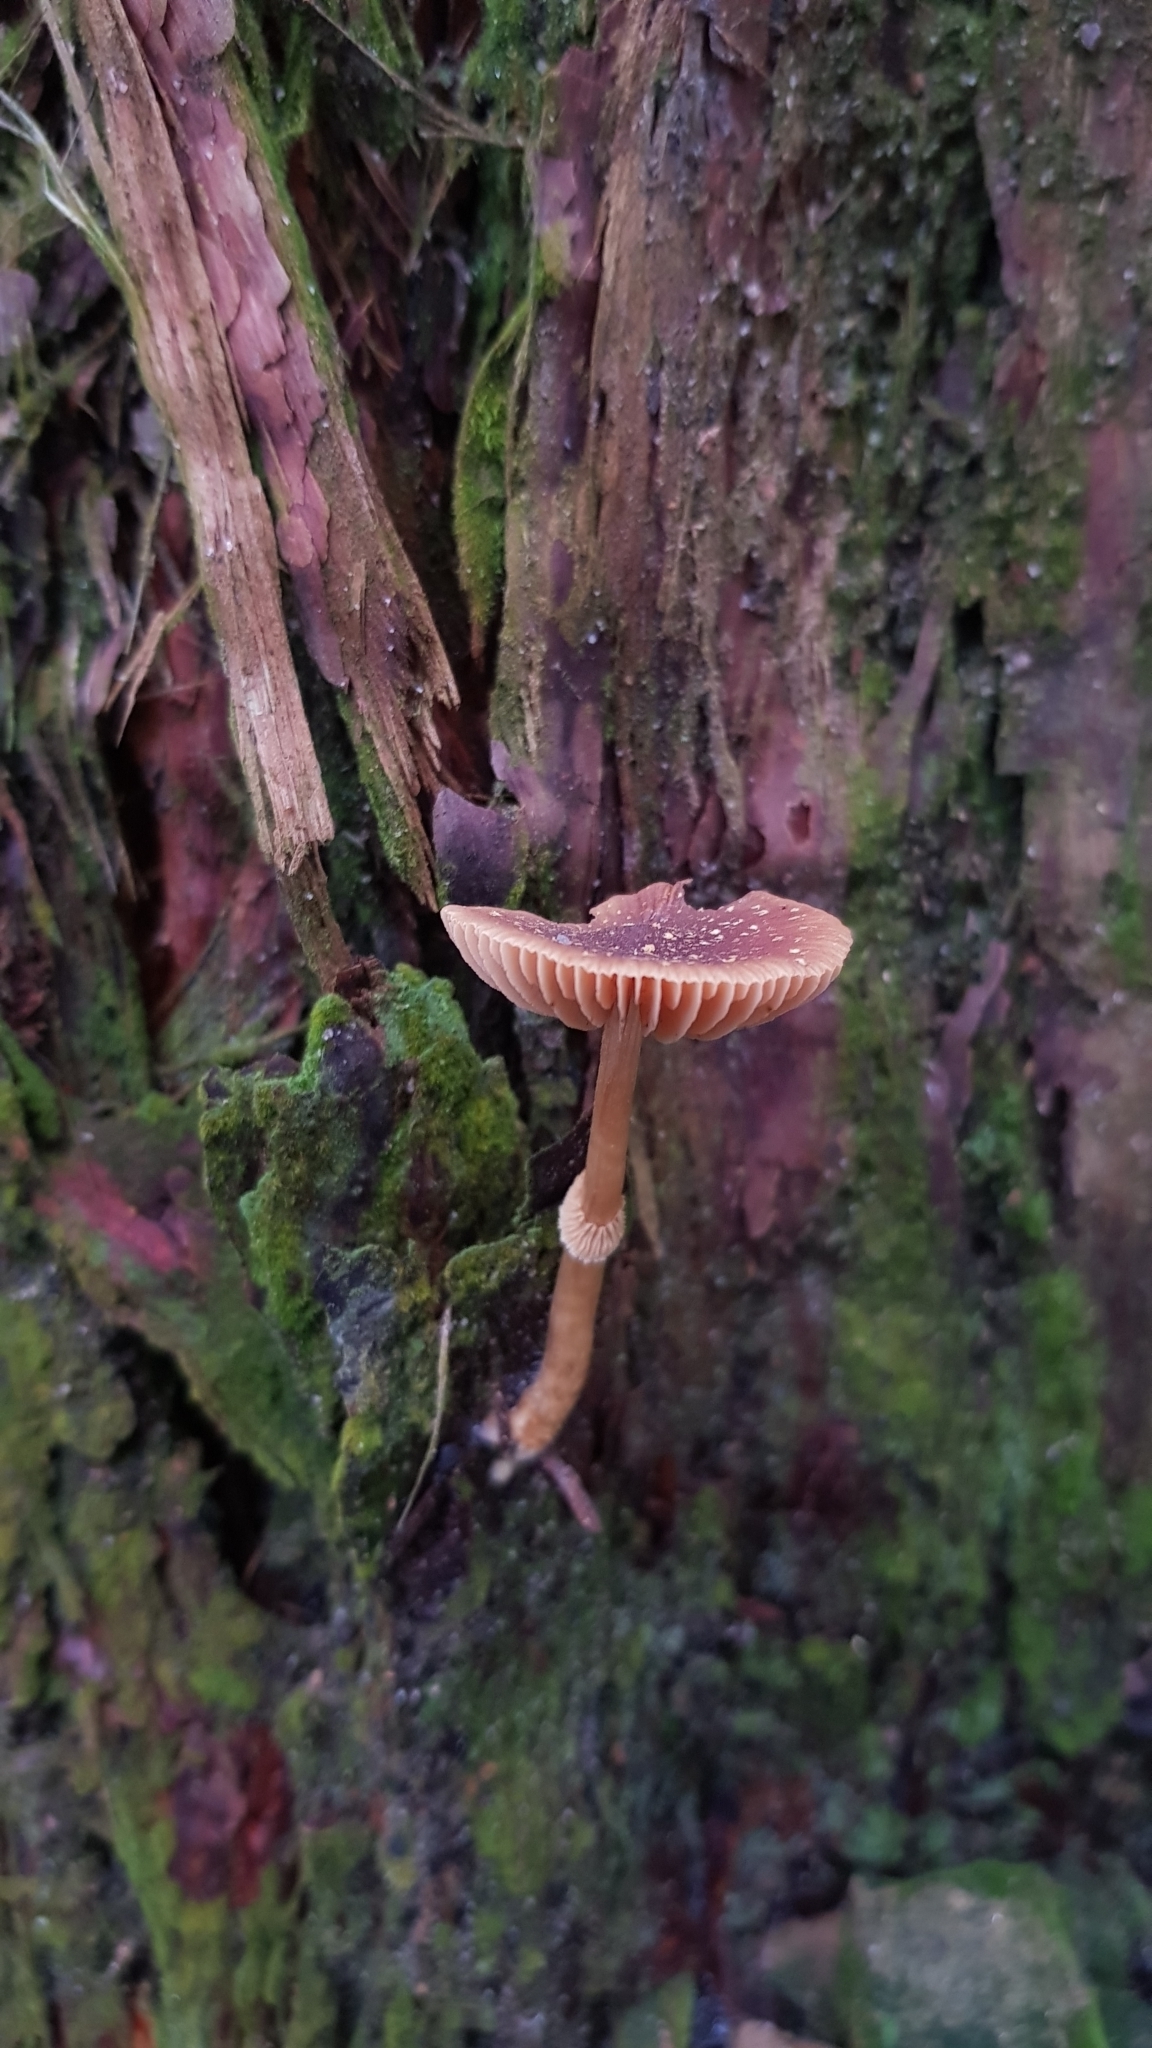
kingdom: Fungi
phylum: Basidiomycota
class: Agaricomycetes
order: Agaricales
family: Bolbitiaceae
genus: Descolea
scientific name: Descolea recedens
